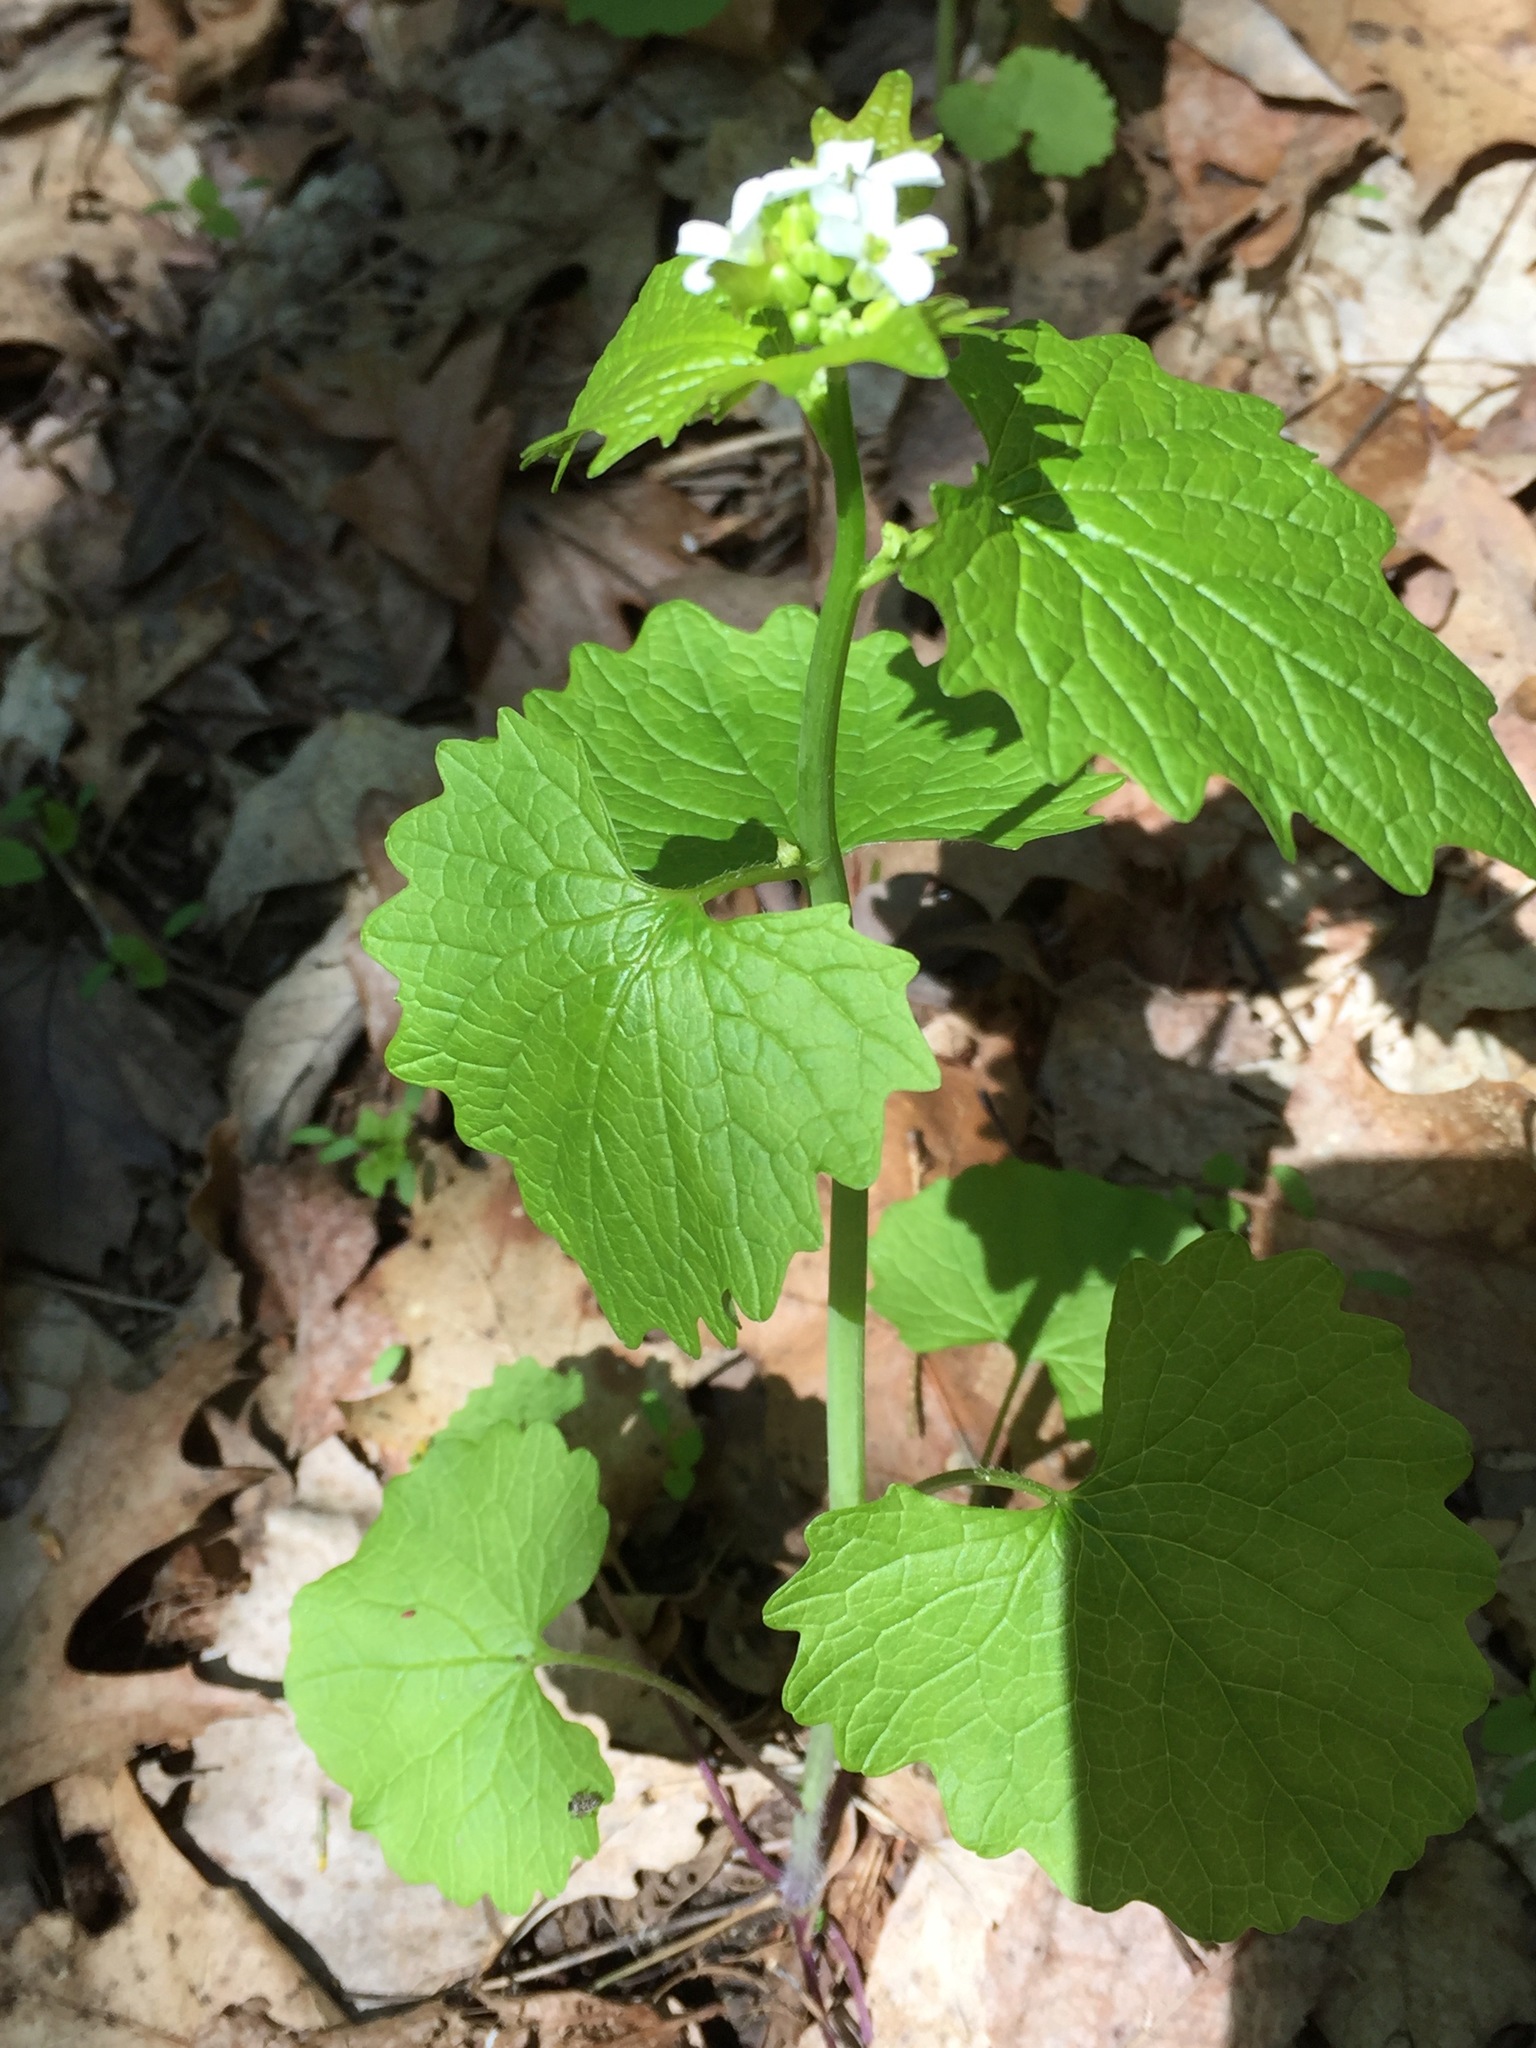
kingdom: Plantae
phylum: Tracheophyta
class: Magnoliopsida
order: Brassicales
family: Brassicaceae
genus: Alliaria
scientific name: Alliaria petiolata
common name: Garlic mustard
